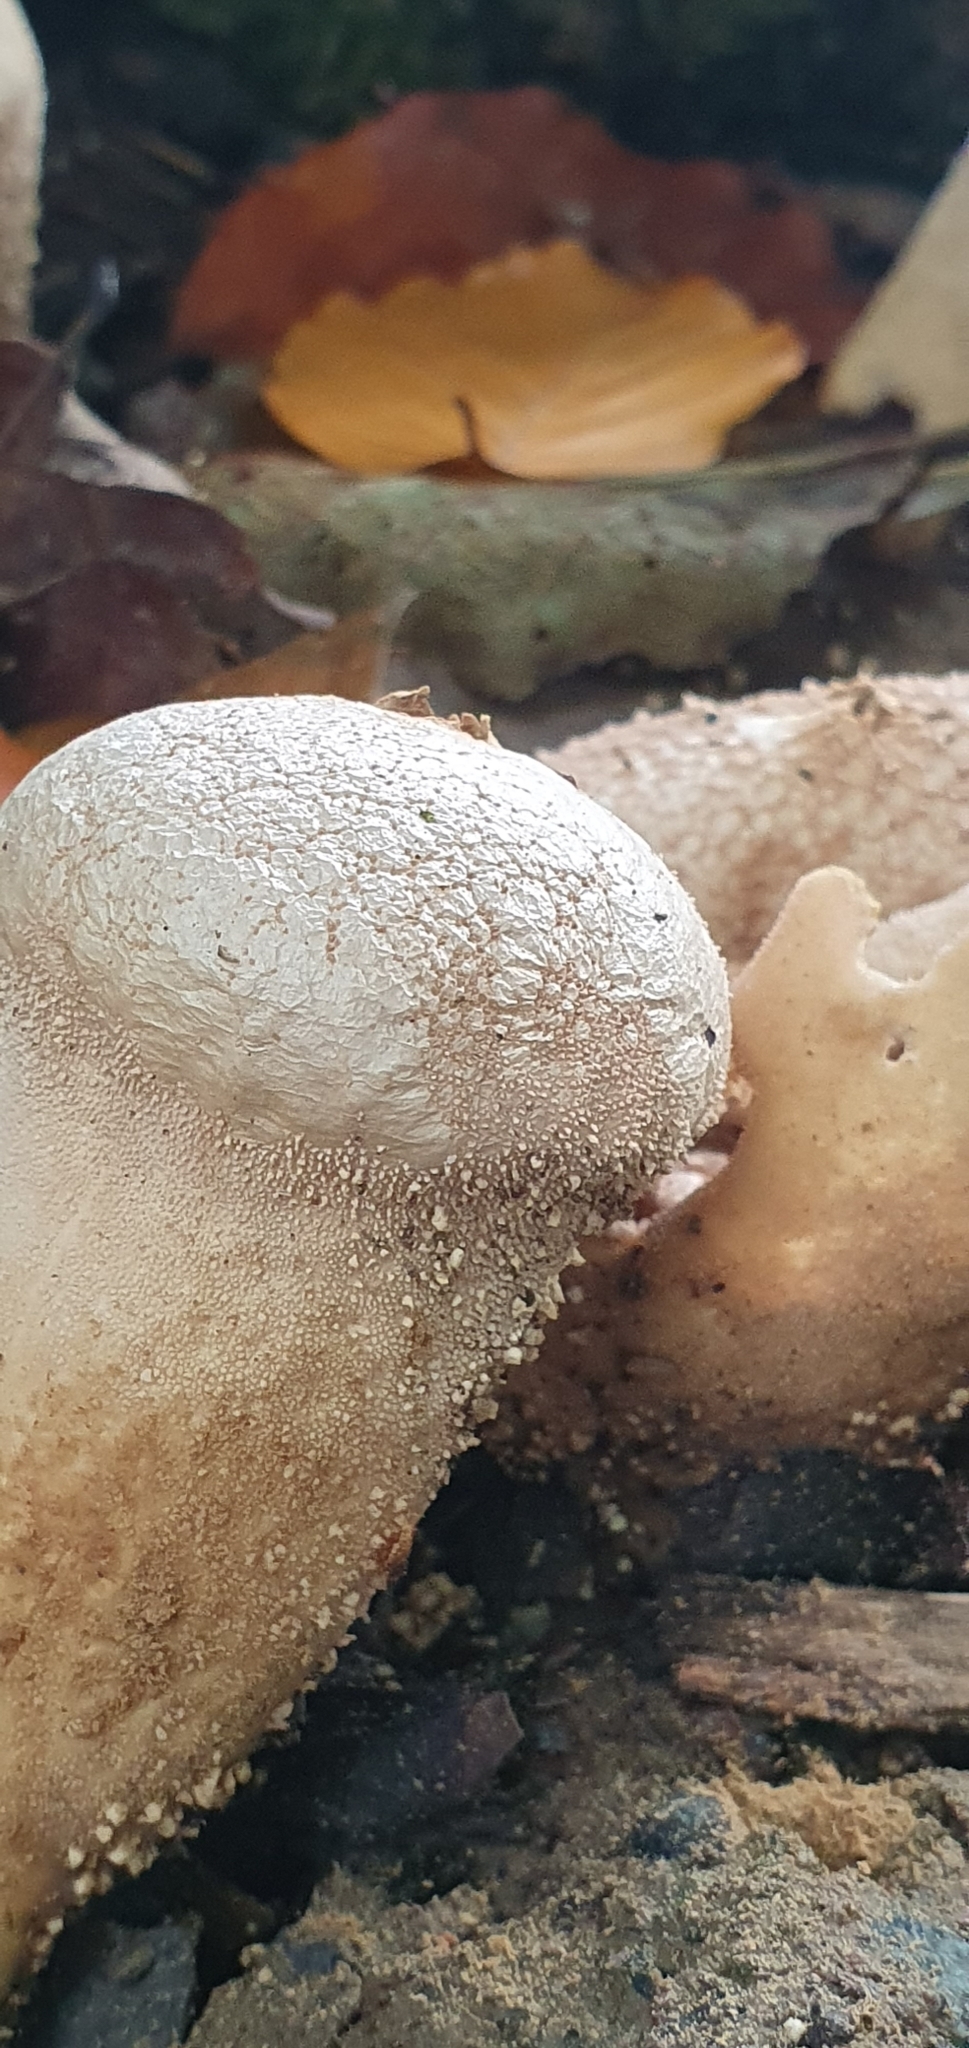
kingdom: Fungi
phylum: Basidiomycota
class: Agaricomycetes
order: Agaricales
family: Lycoperdaceae
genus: Lycoperdon
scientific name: Lycoperdon perlatum
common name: Common puffball
